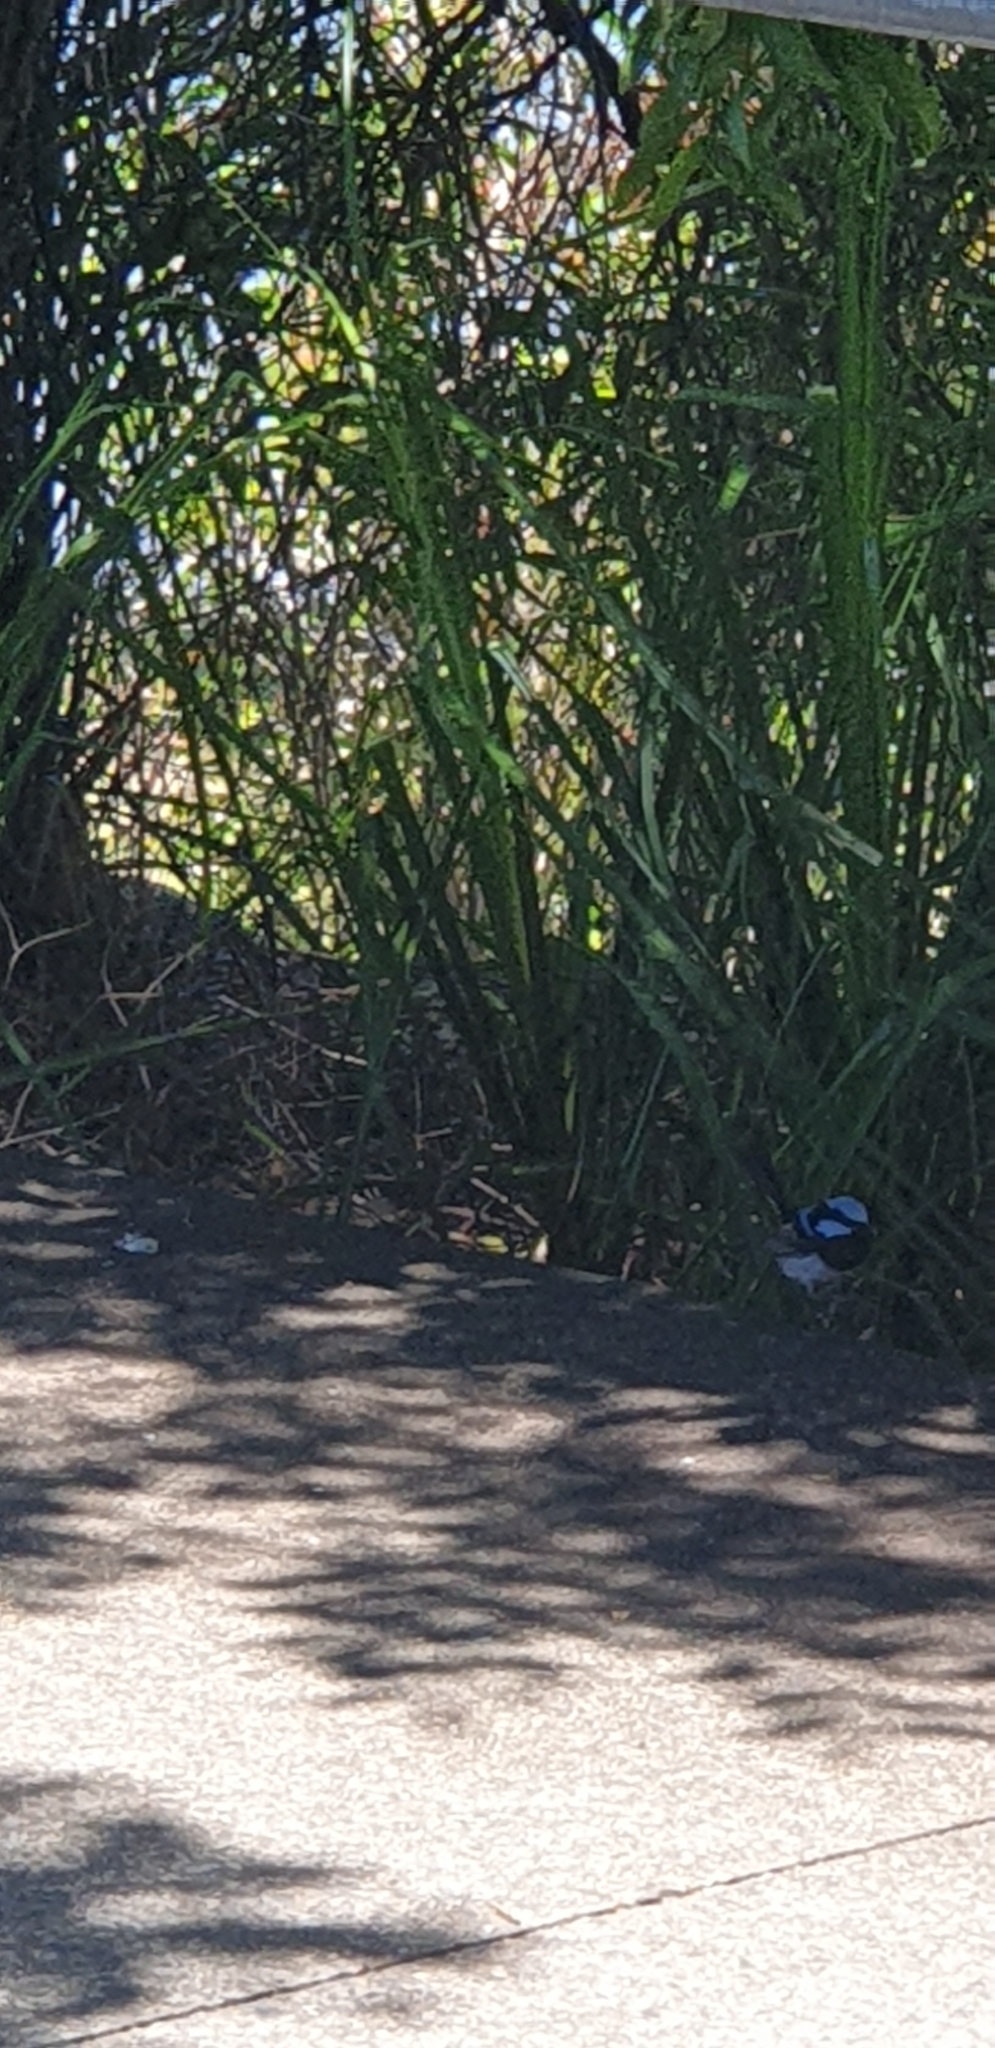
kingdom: Animalia
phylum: Chordata
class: Aves
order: Passeriformes
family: Maluridae
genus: Malurus
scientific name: Malurus cyaneus
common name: Superb fairywren
